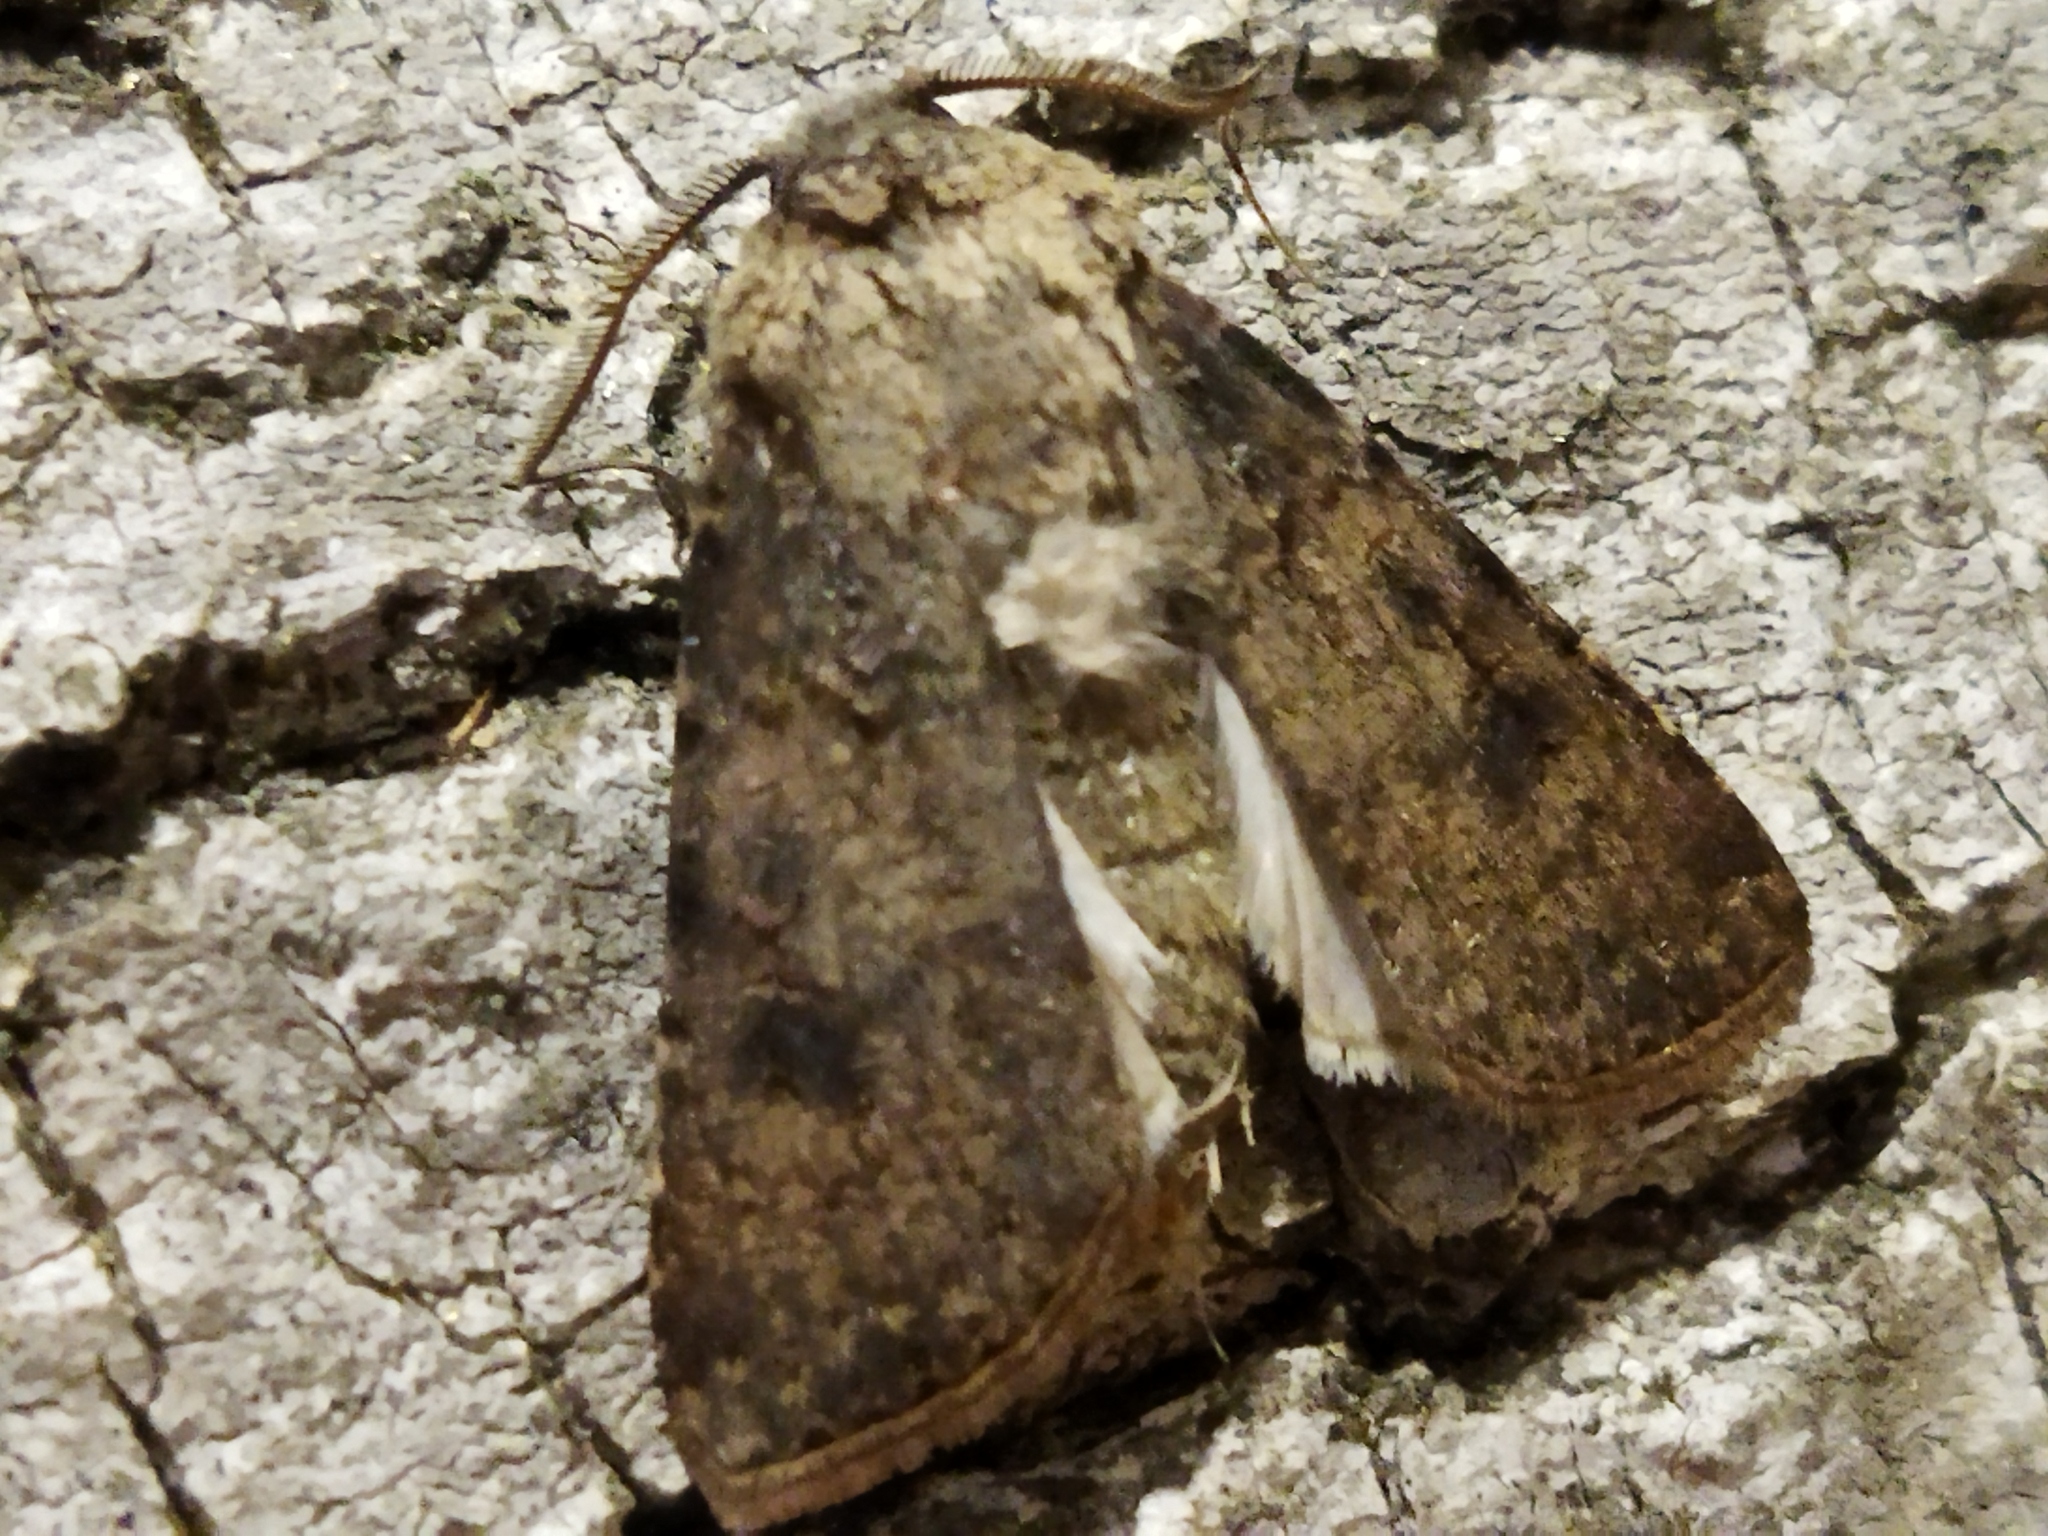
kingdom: Animalia
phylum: Arthropoda
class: Insecta
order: Lepidoptera
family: Noctuidae
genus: Agrotis
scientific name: Agrotis segetum
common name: Turnip moth
